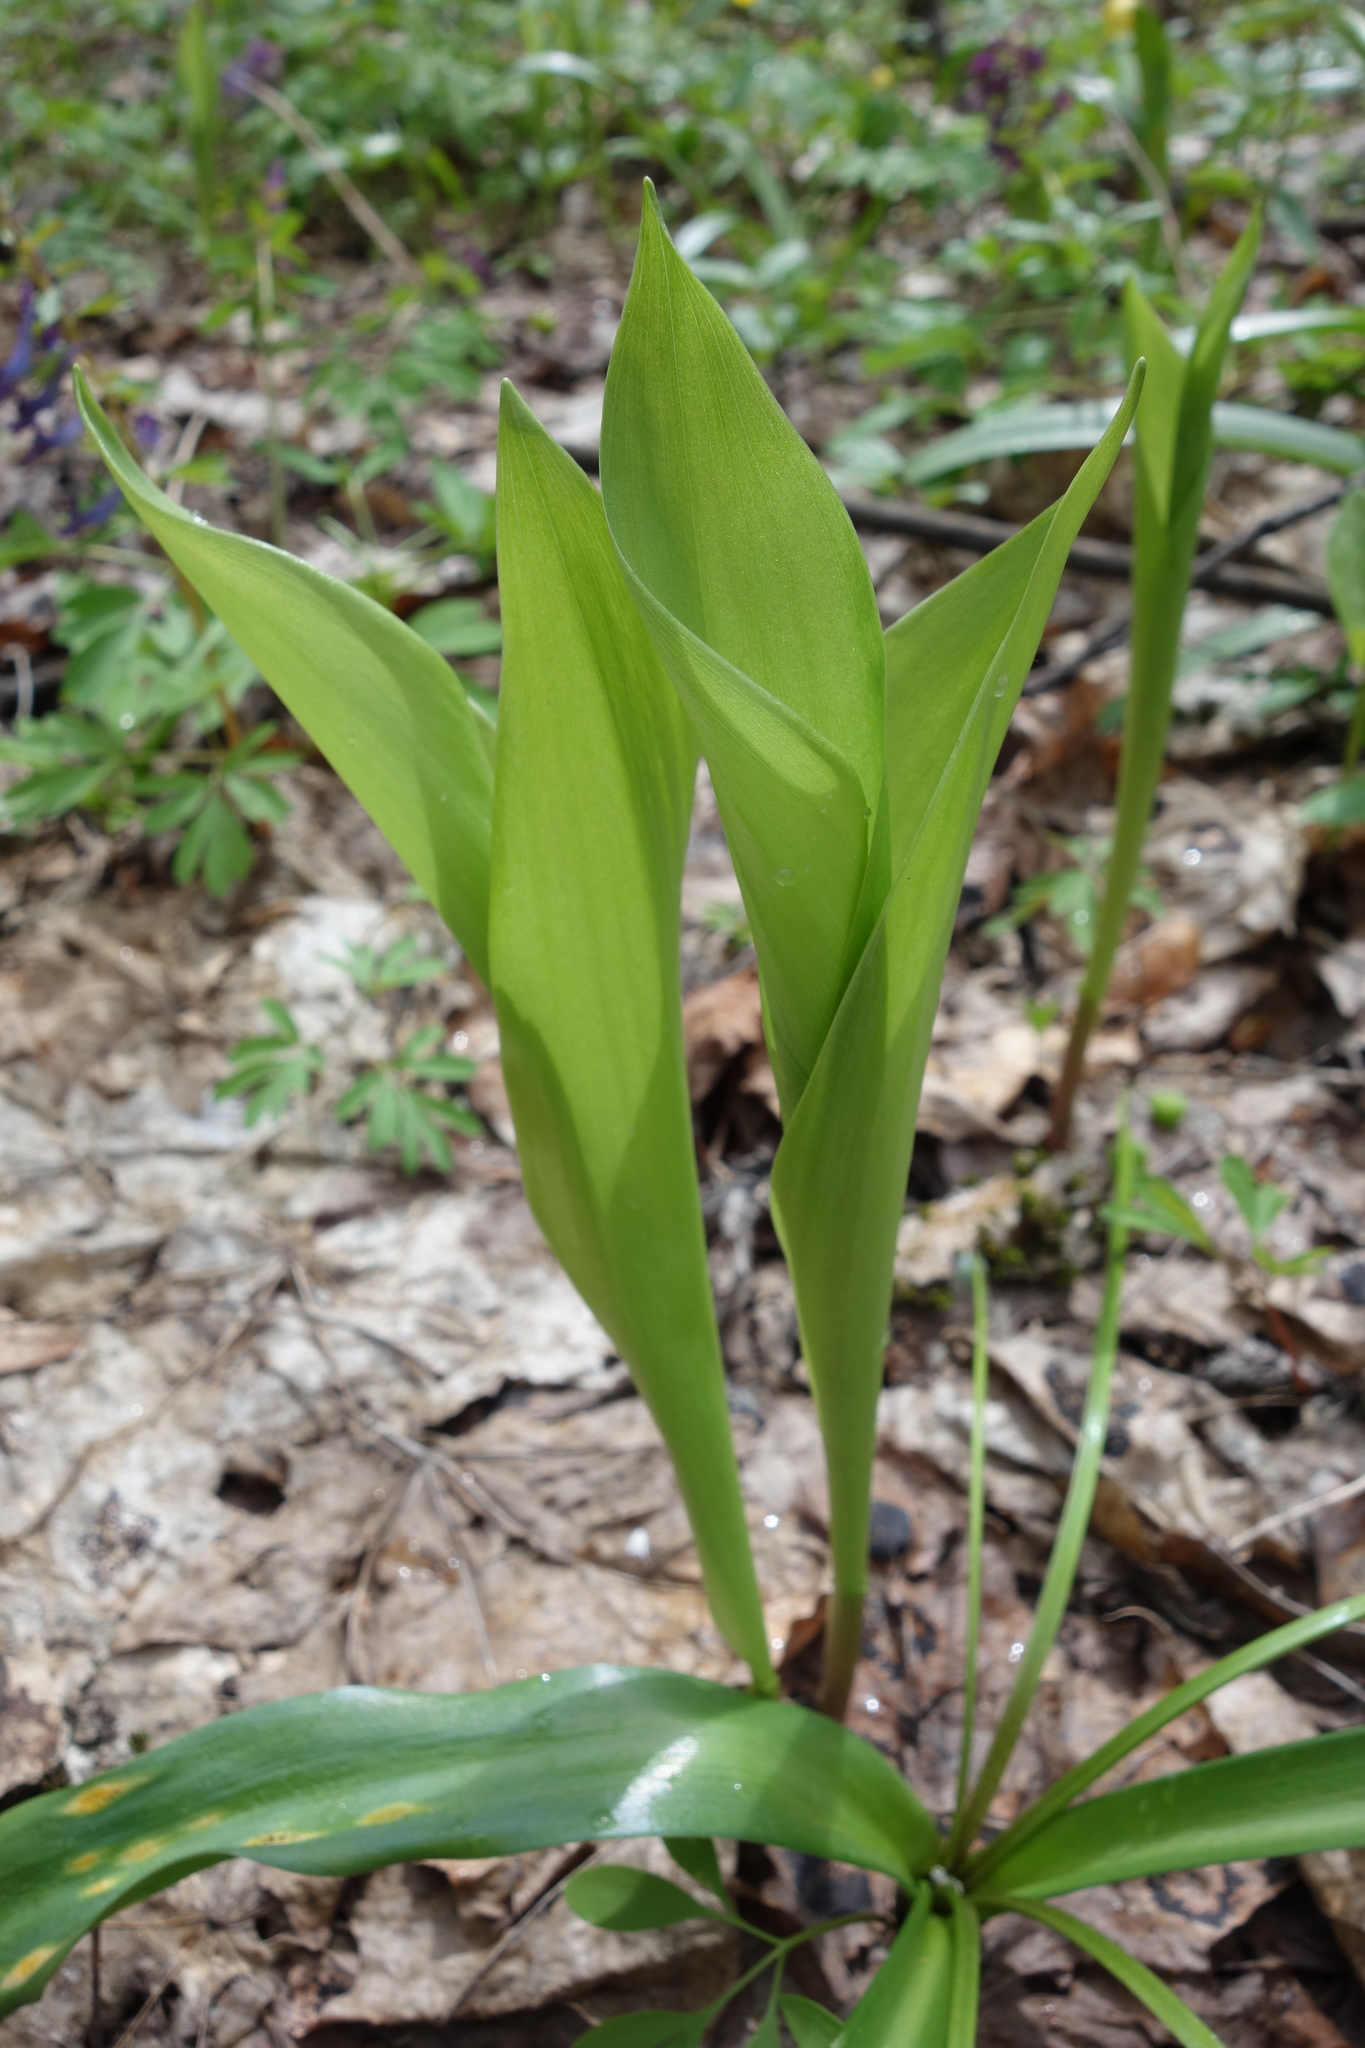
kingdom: Plantae
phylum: Tracheophyta
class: Liliopsida
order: Asparagales
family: Asparagaceae
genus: Convallaria
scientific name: Convallaria majalis
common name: Lily-of-the-valley
